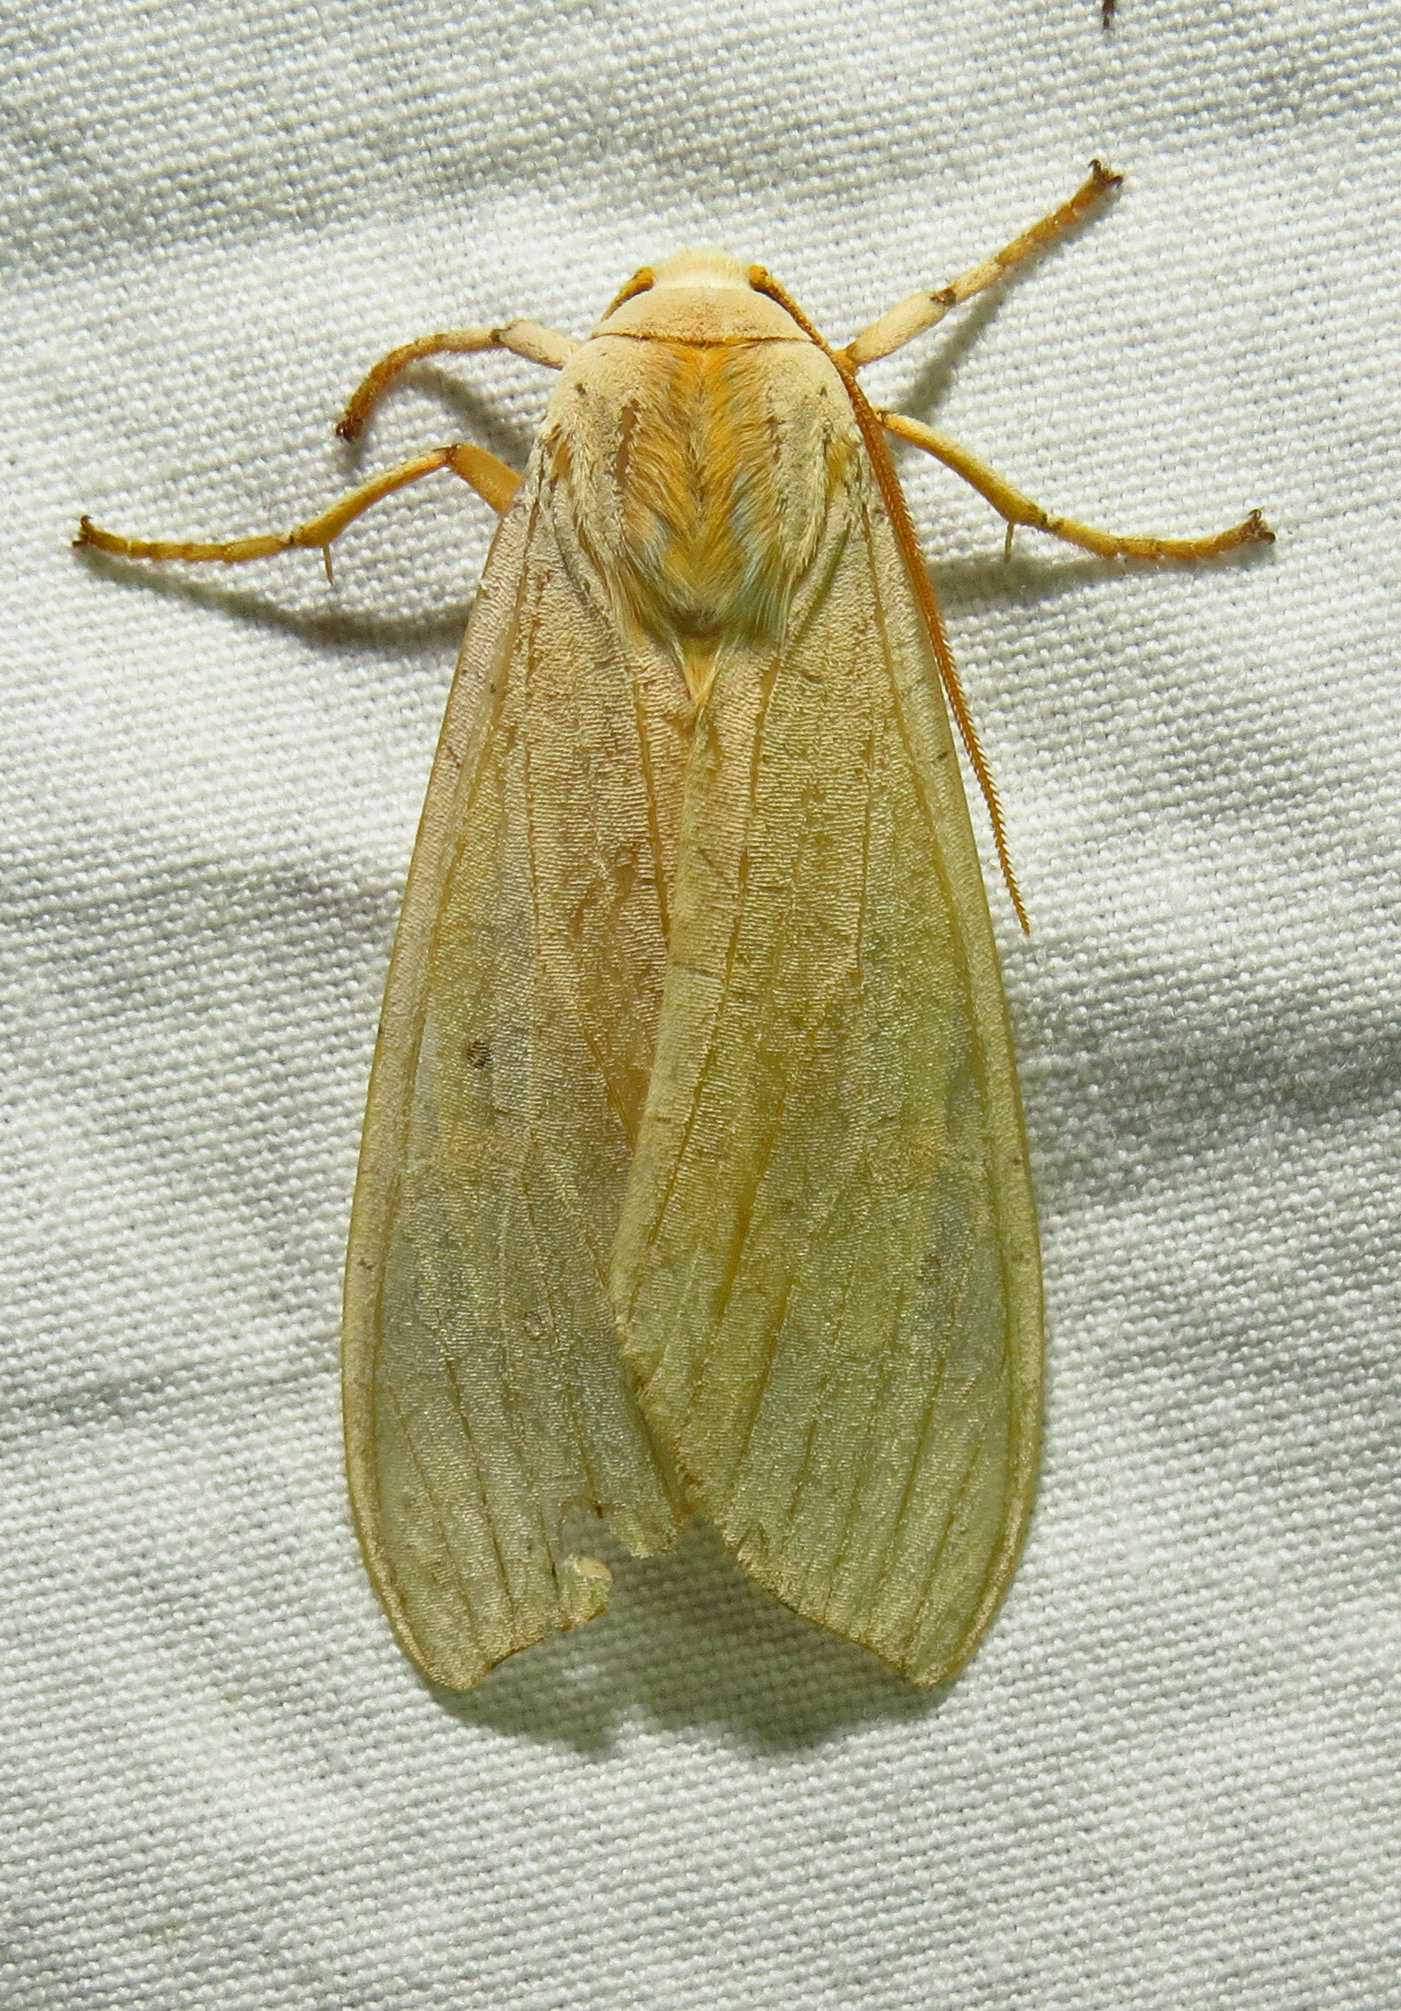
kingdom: Animalia
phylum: Arthropoda
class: Insecta
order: Lepidoptera
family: Erebidae
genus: Halysidota
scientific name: Halysidota
